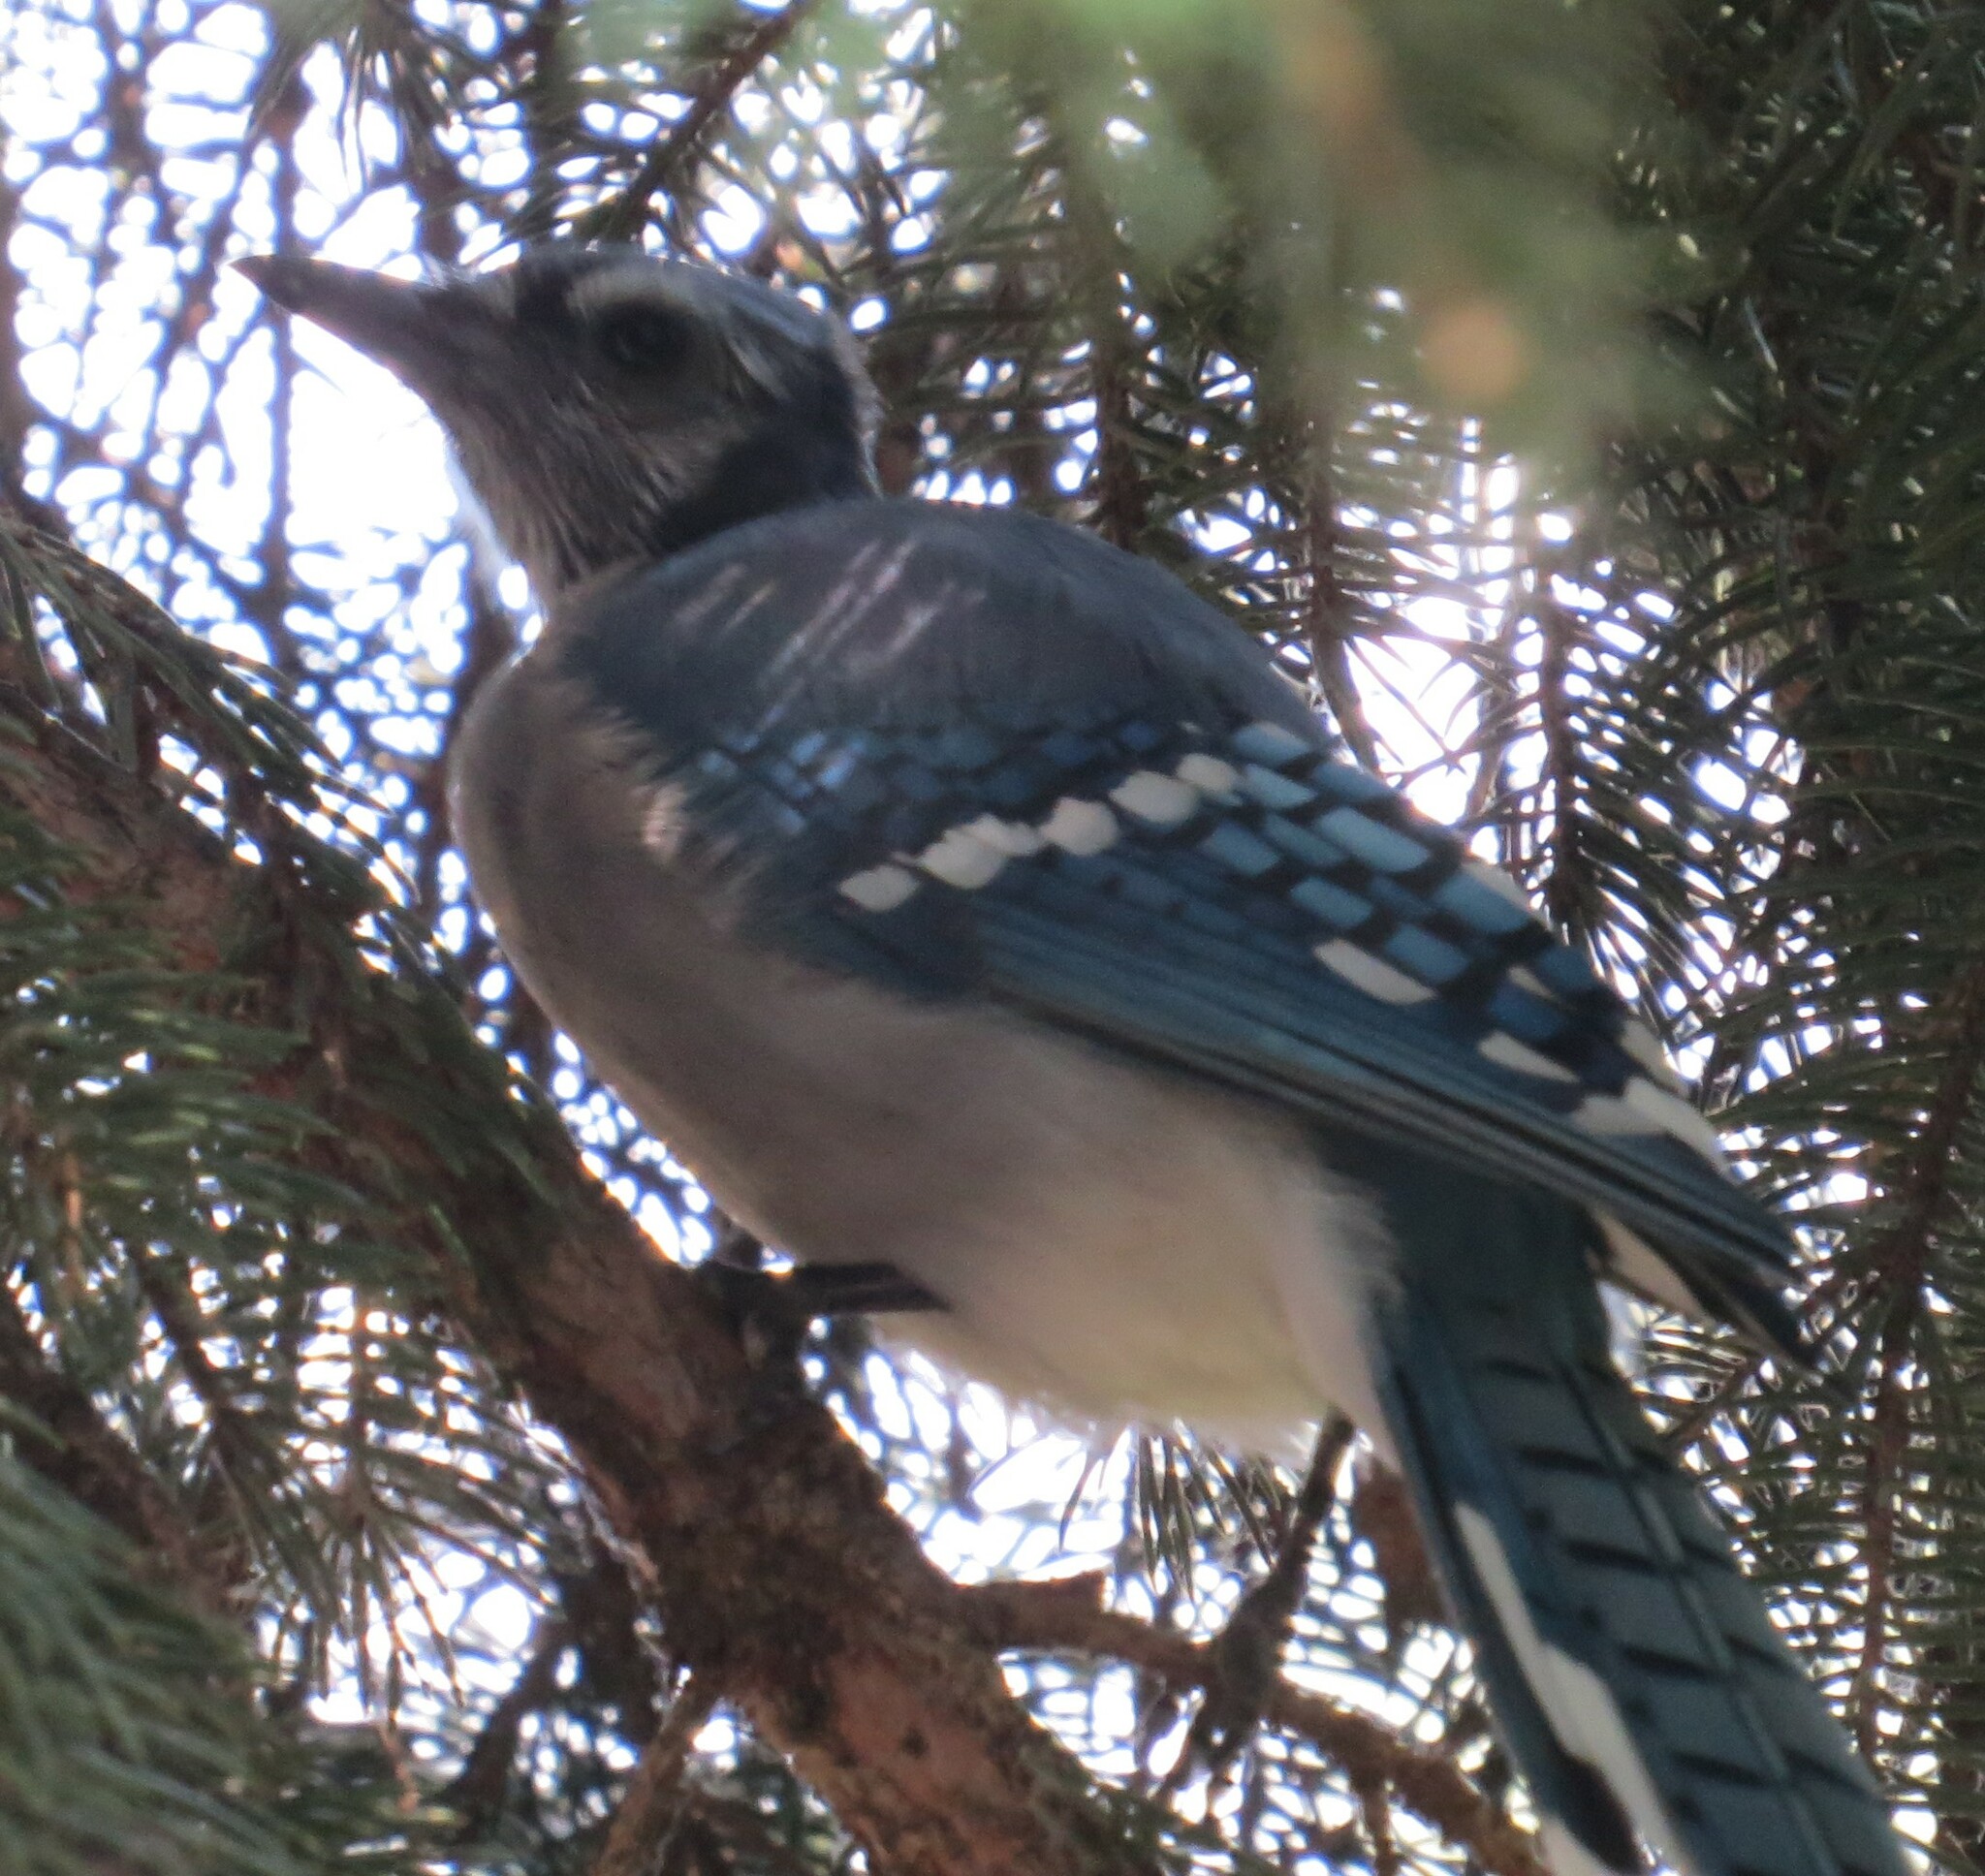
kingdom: Animalia
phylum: Chordata
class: Aves
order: Passeriformes
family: Corvidae
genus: Cyanocitta
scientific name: Cyanocitta cristata
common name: Blue jay
